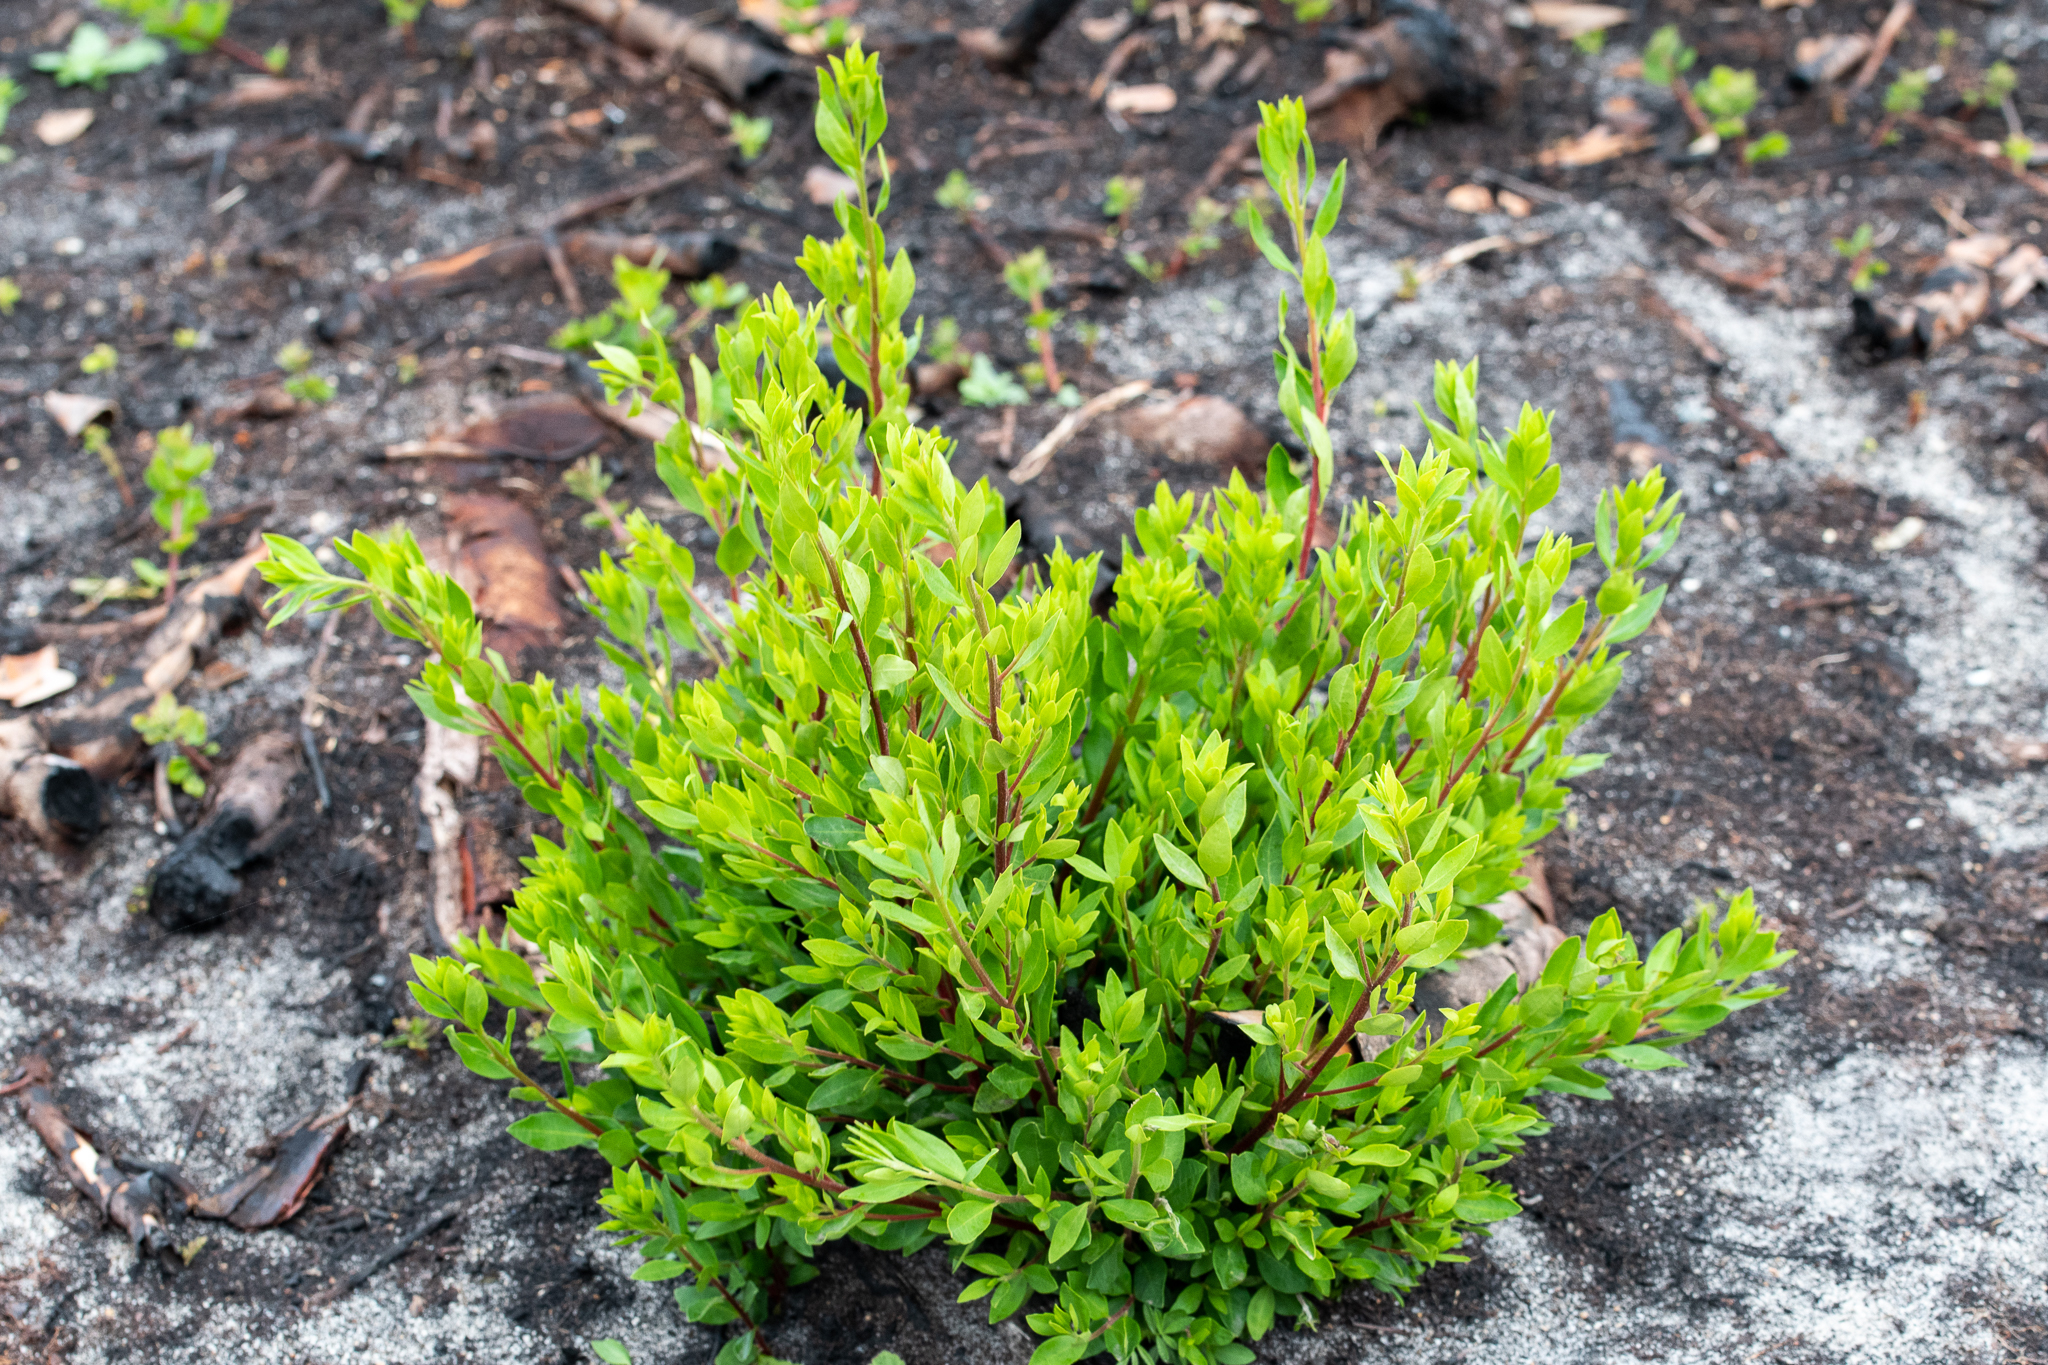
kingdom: Plantae
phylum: Tracheophyta
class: Magnoliopsida
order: Ericales
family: Ebenaceae
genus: Diospyros
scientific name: Diospyros glabra
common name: Fynbos star apple
